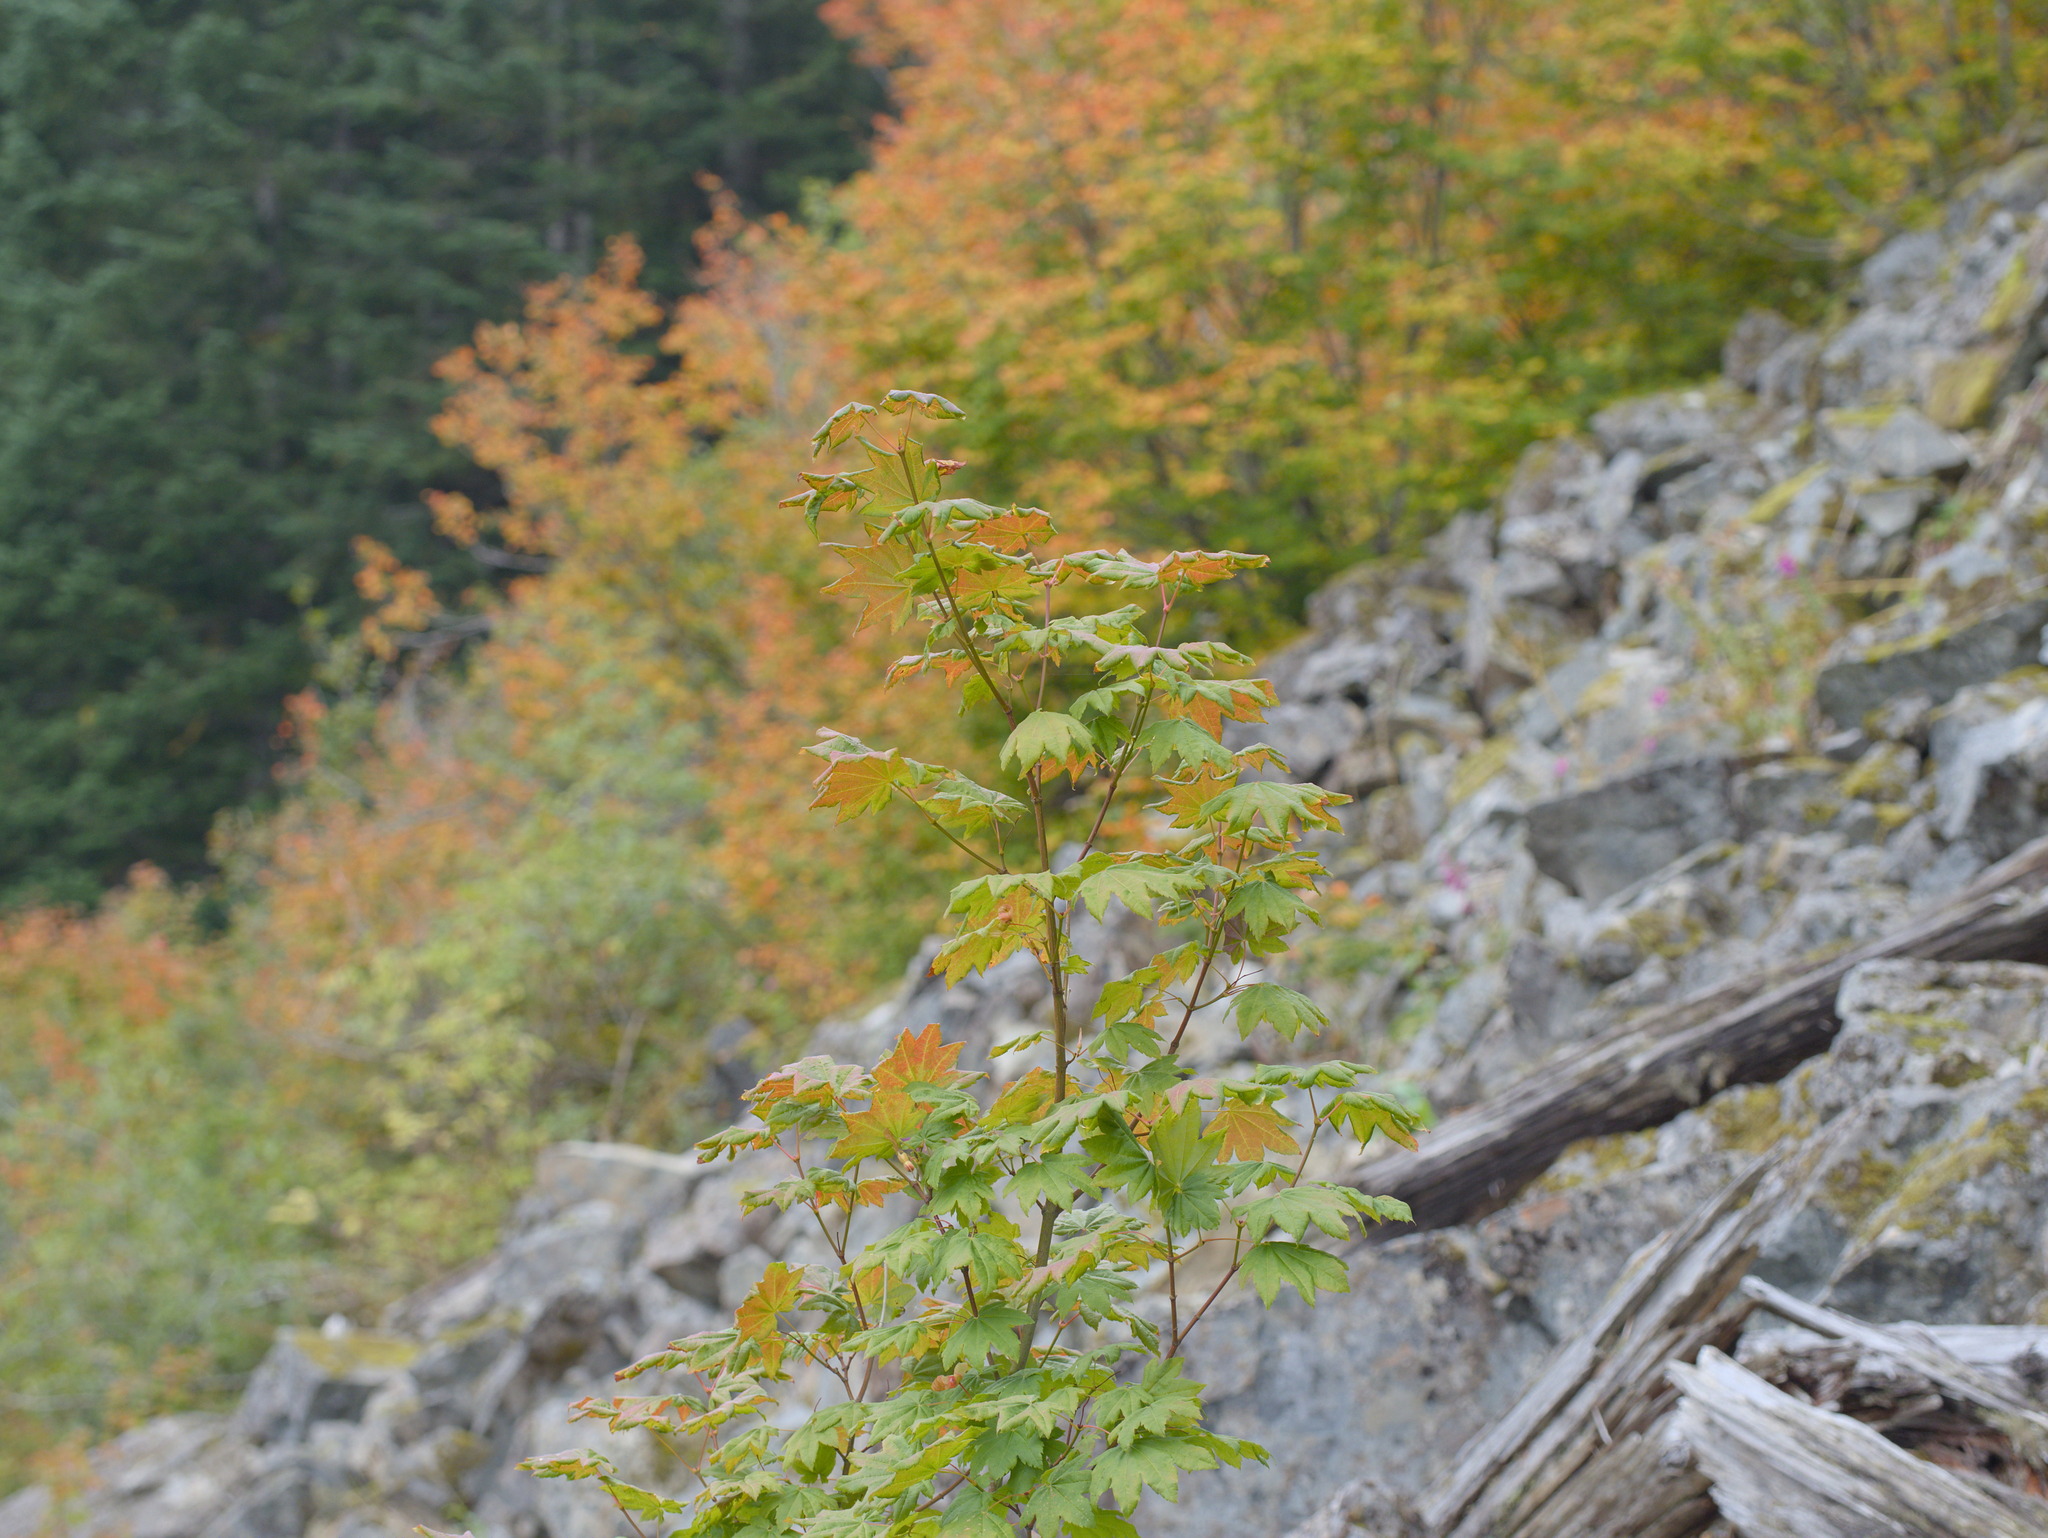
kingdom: Plantae
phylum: Tracheophyta
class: Magnoliopsida
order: Sapindales
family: Sapindaceae
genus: Acer
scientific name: Acer circinatum
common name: Vine maple
